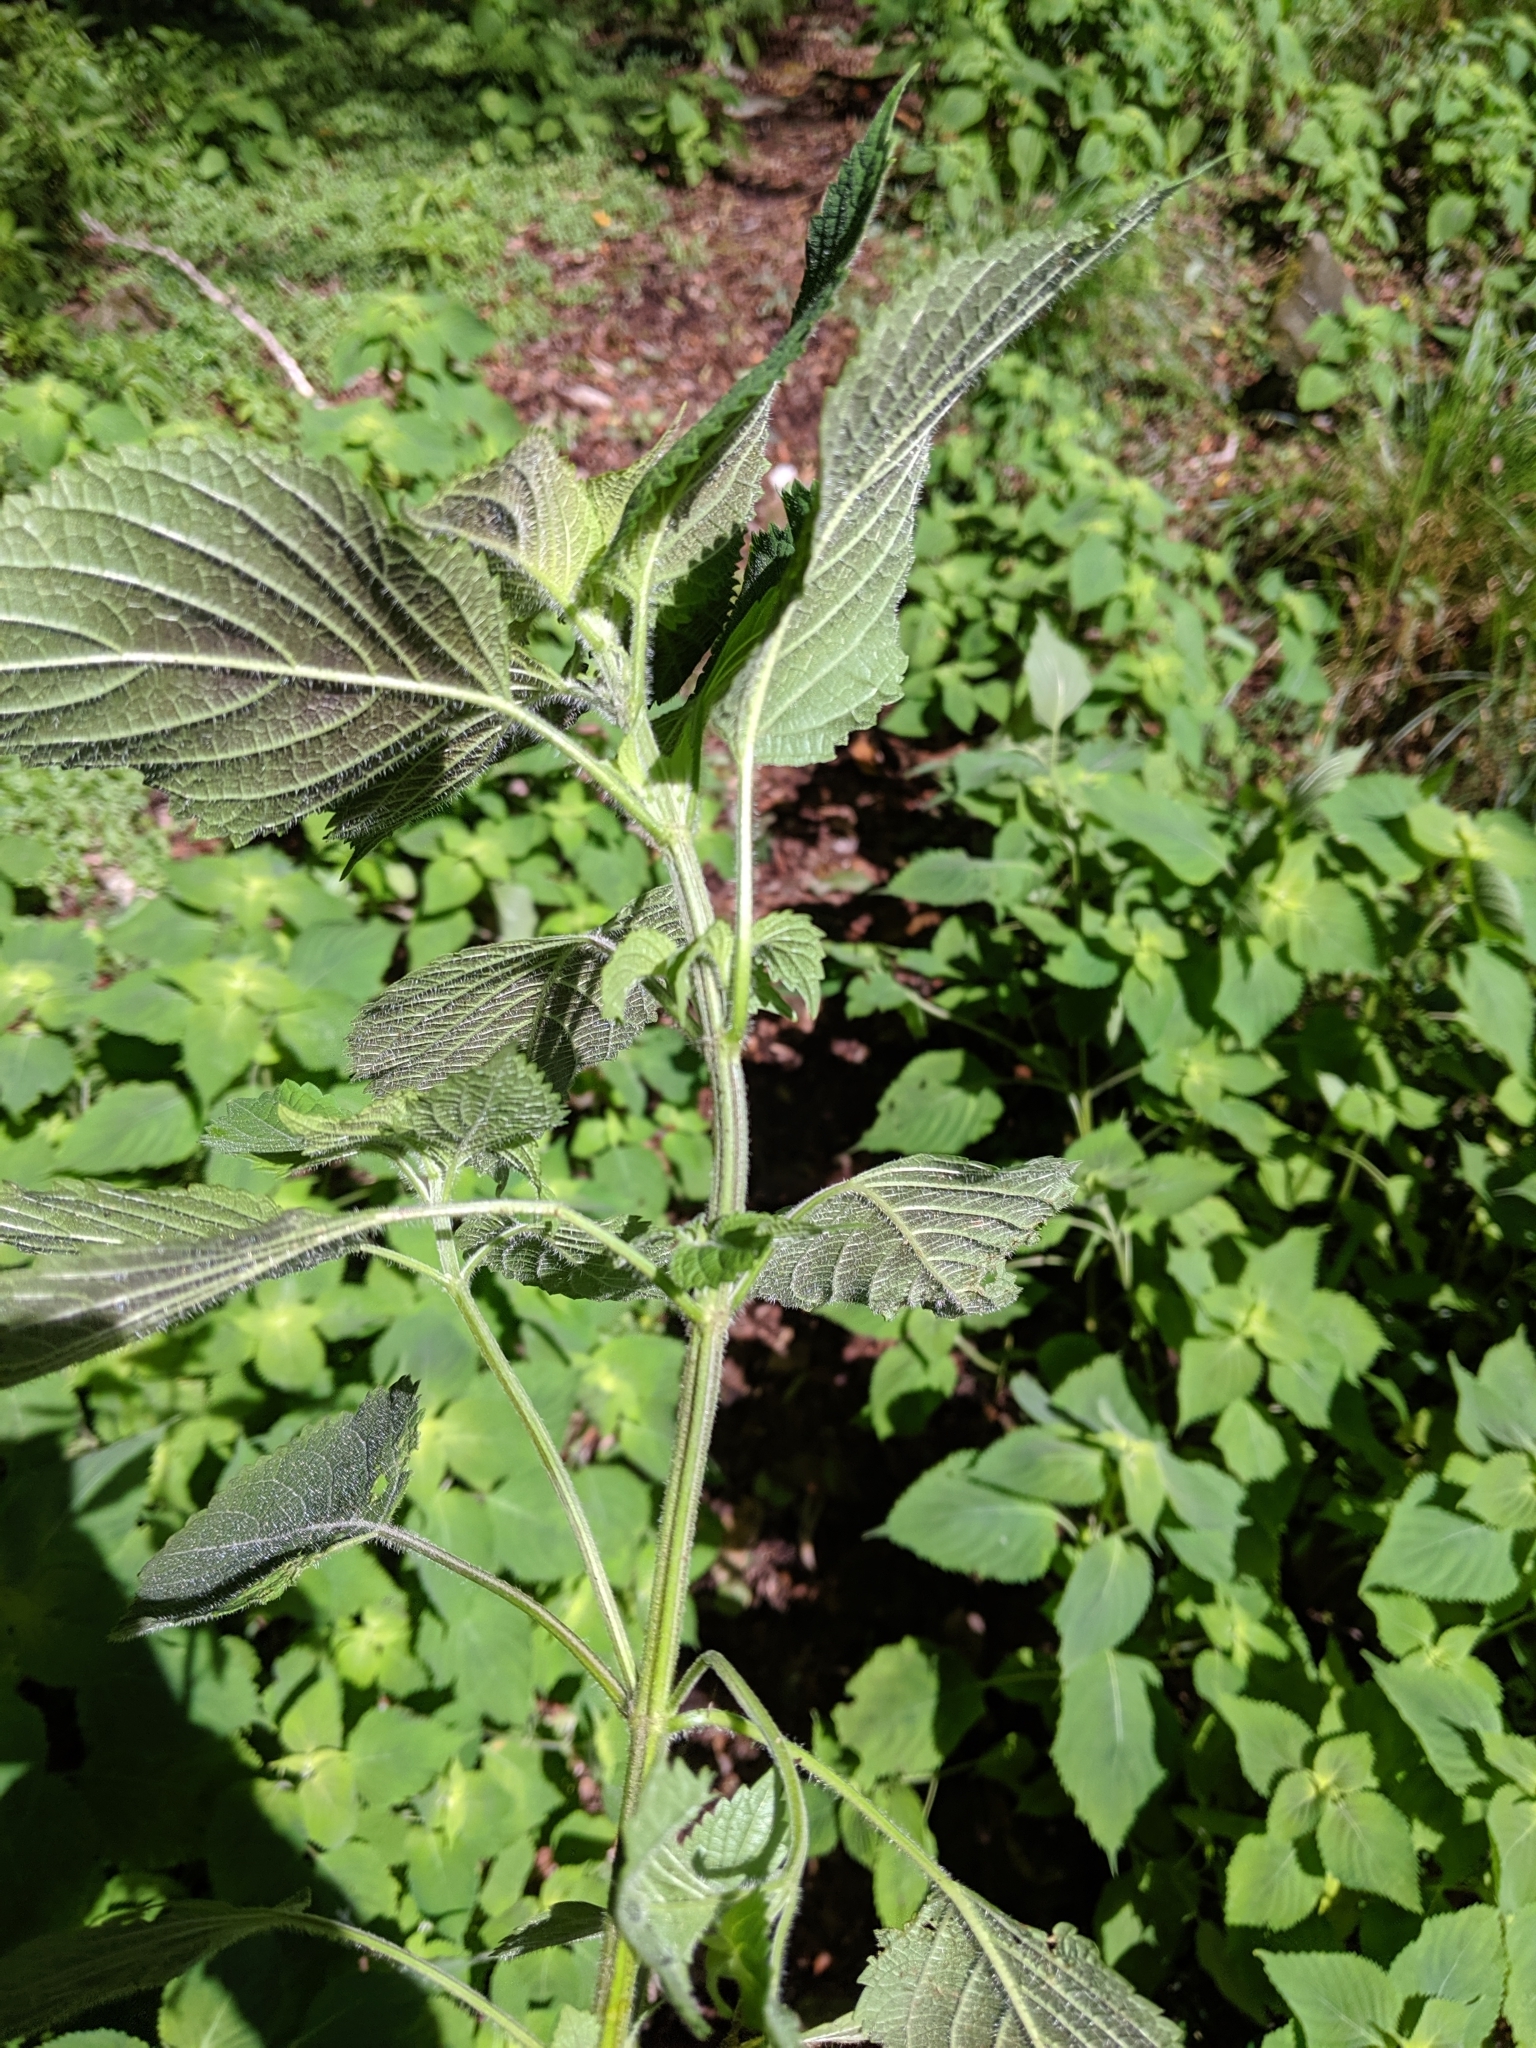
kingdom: Plantae
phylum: Tracheophyta
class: Magnoliopsida
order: Lamiales
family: Lamiaceae
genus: Perilla
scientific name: Perilla frutescens
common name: Perilla
